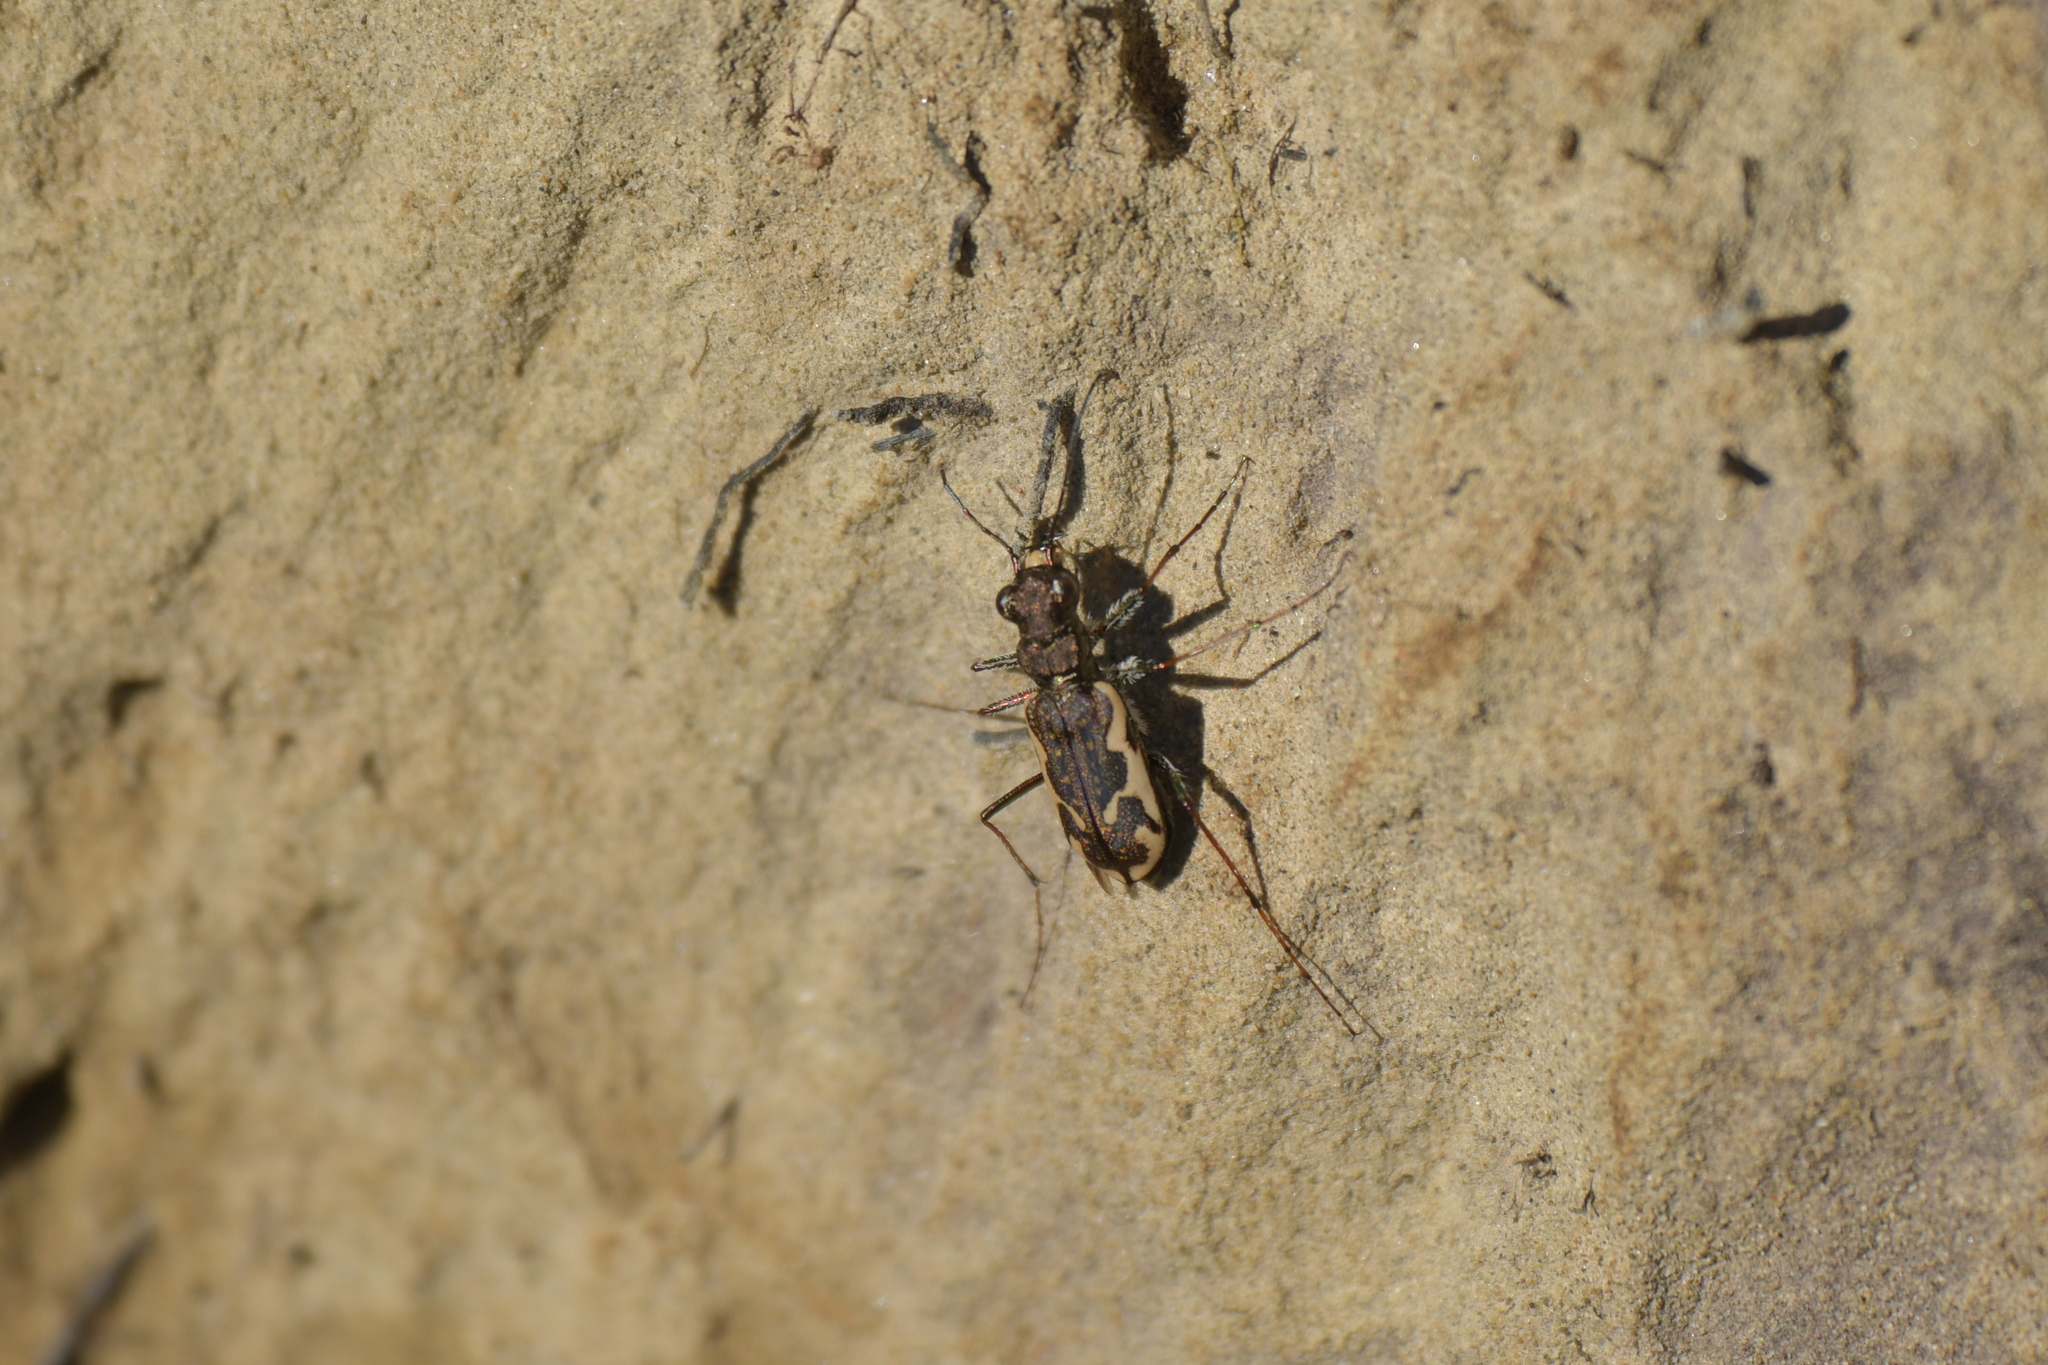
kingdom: Animalia
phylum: Arthropoda
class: Insecta
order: Coleoptera
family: Carabidae
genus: Neocicindela
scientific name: Neocicindela tuberculata
